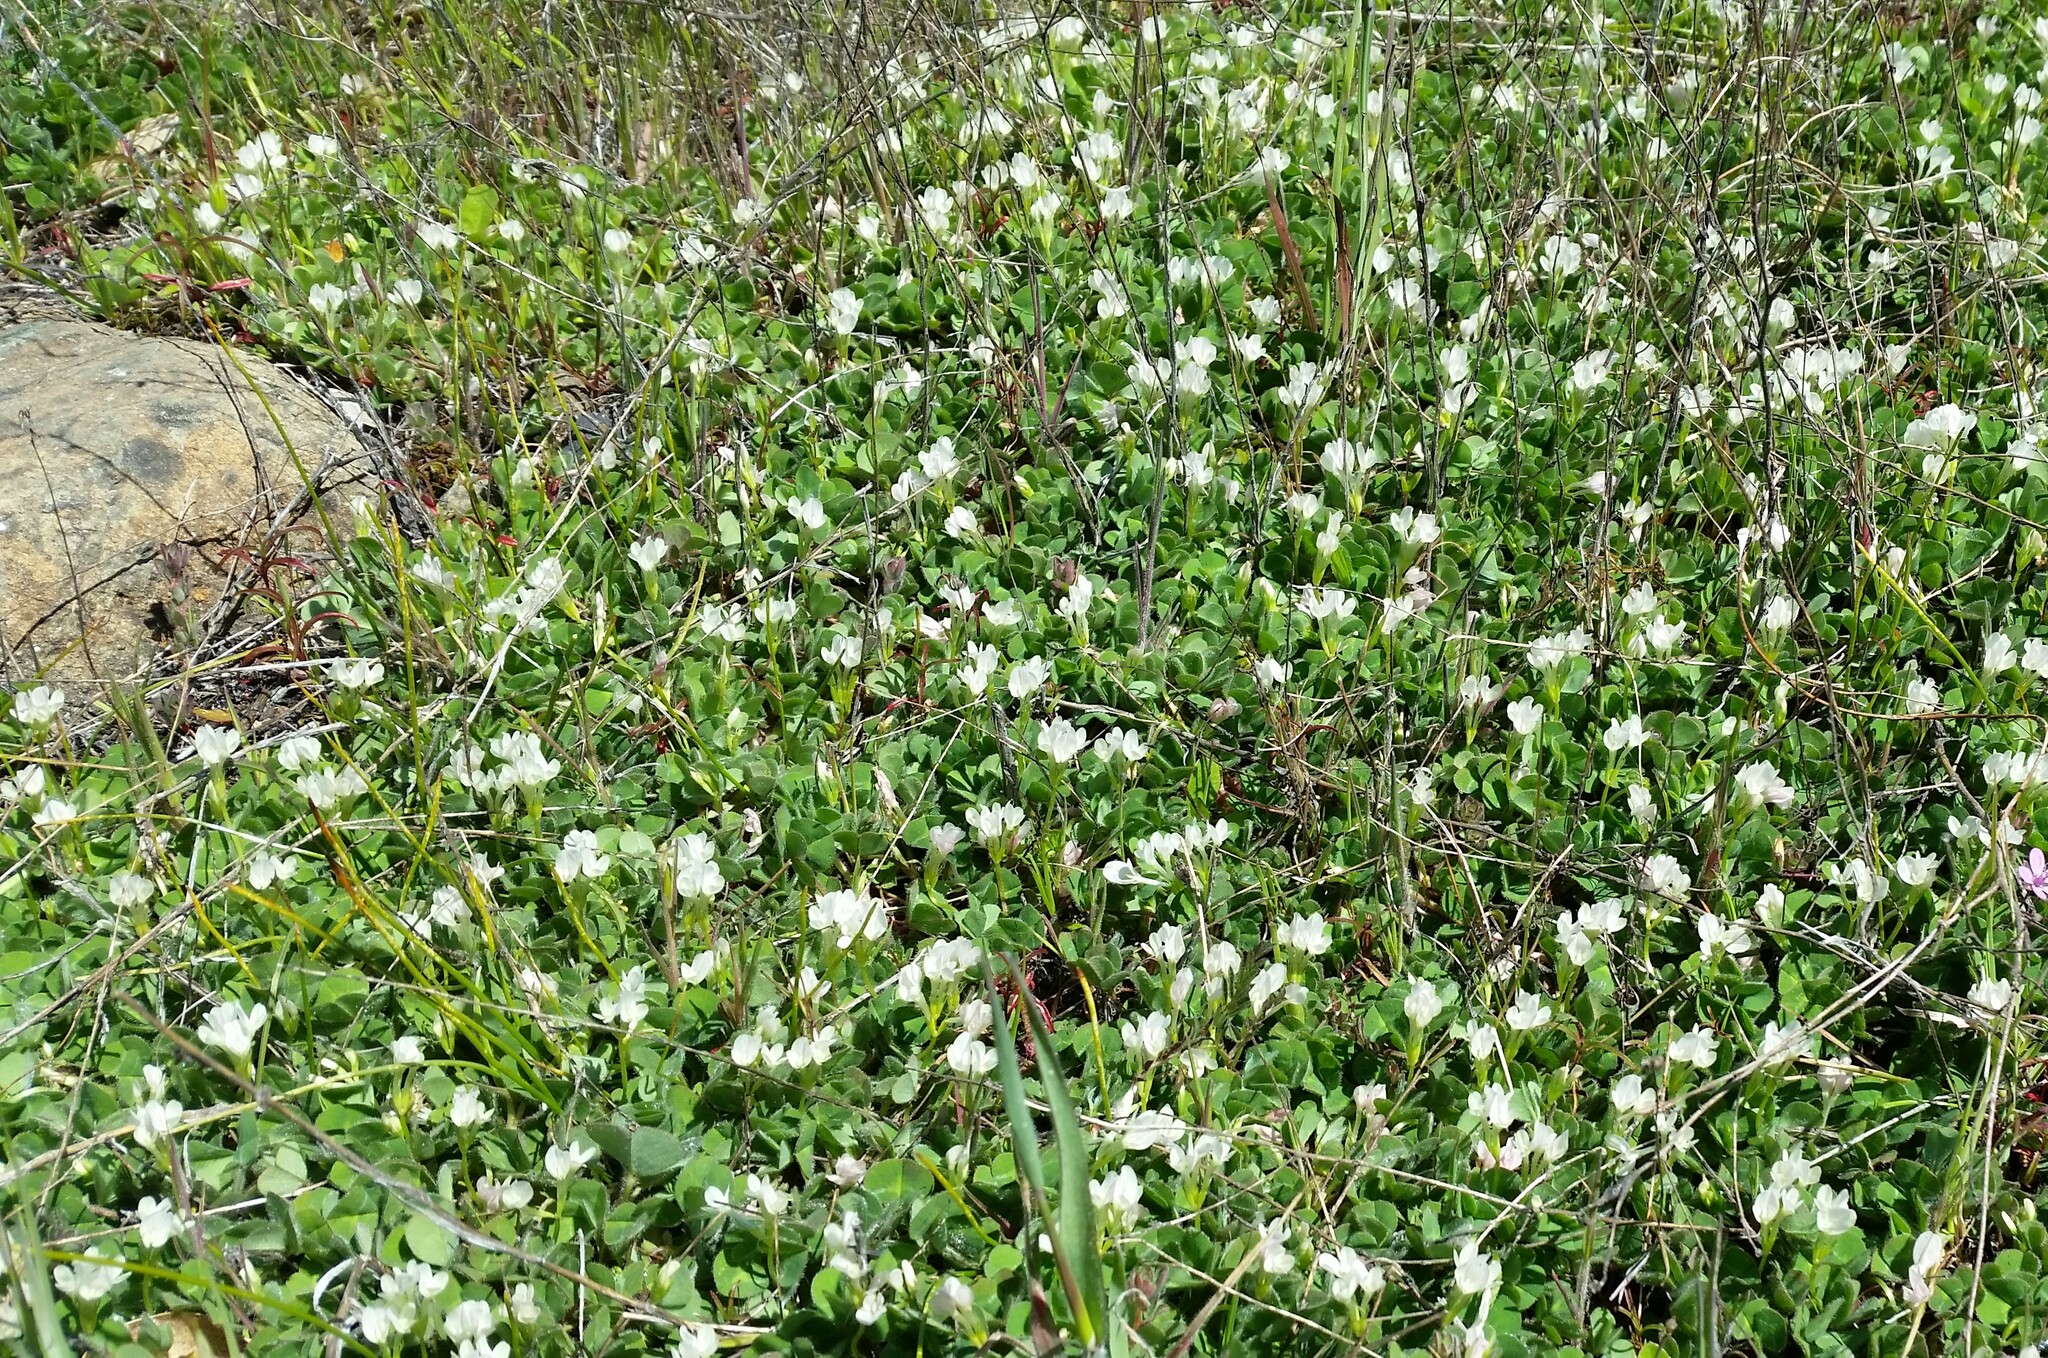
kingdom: Plantae
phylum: Tracheophyta
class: Magnoliopsida
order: Fabales
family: Fabaceae
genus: Trifolium
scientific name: Trifolium subterraneum
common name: Subterranean clover
